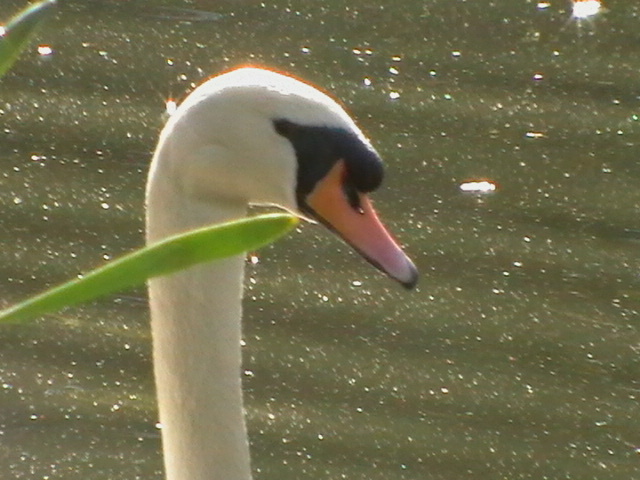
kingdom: Animalia
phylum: Chordata
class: Aves
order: Anseriformes
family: Anatidae
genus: Cygnus
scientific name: Cygnus olor
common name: Mute swan
